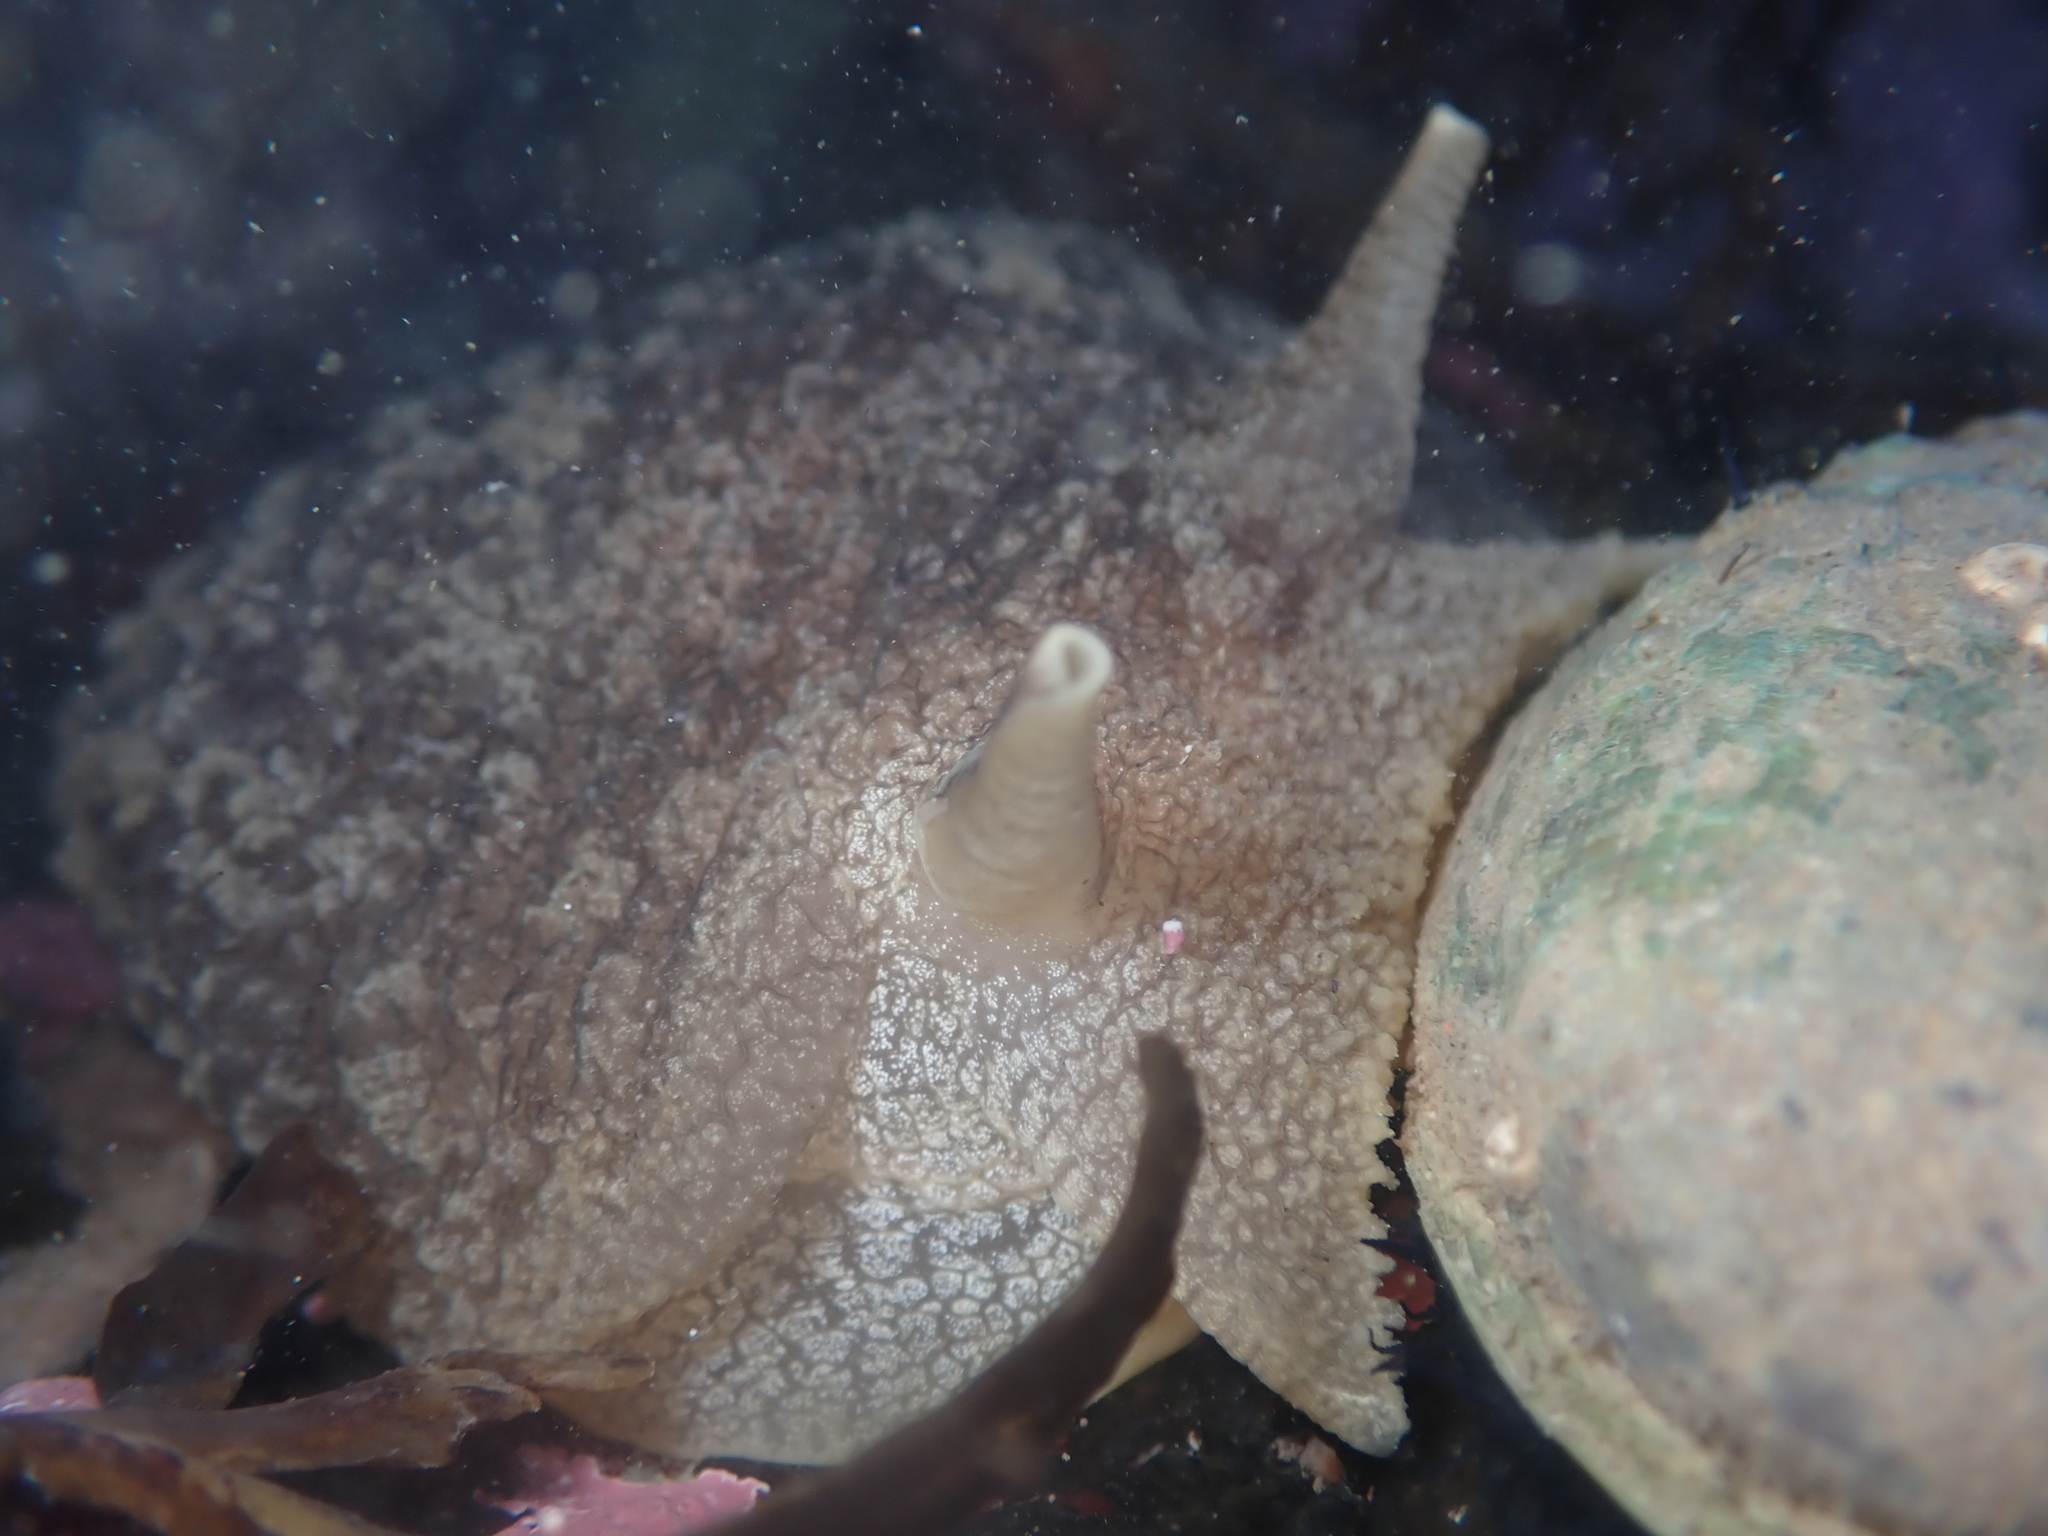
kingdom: Animalia
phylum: Mollusca
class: Gastropoda
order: Pleurobranchida
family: Pleurobranchaeidae
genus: Pleurobranchaea
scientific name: Pleurobranchaea maculata
